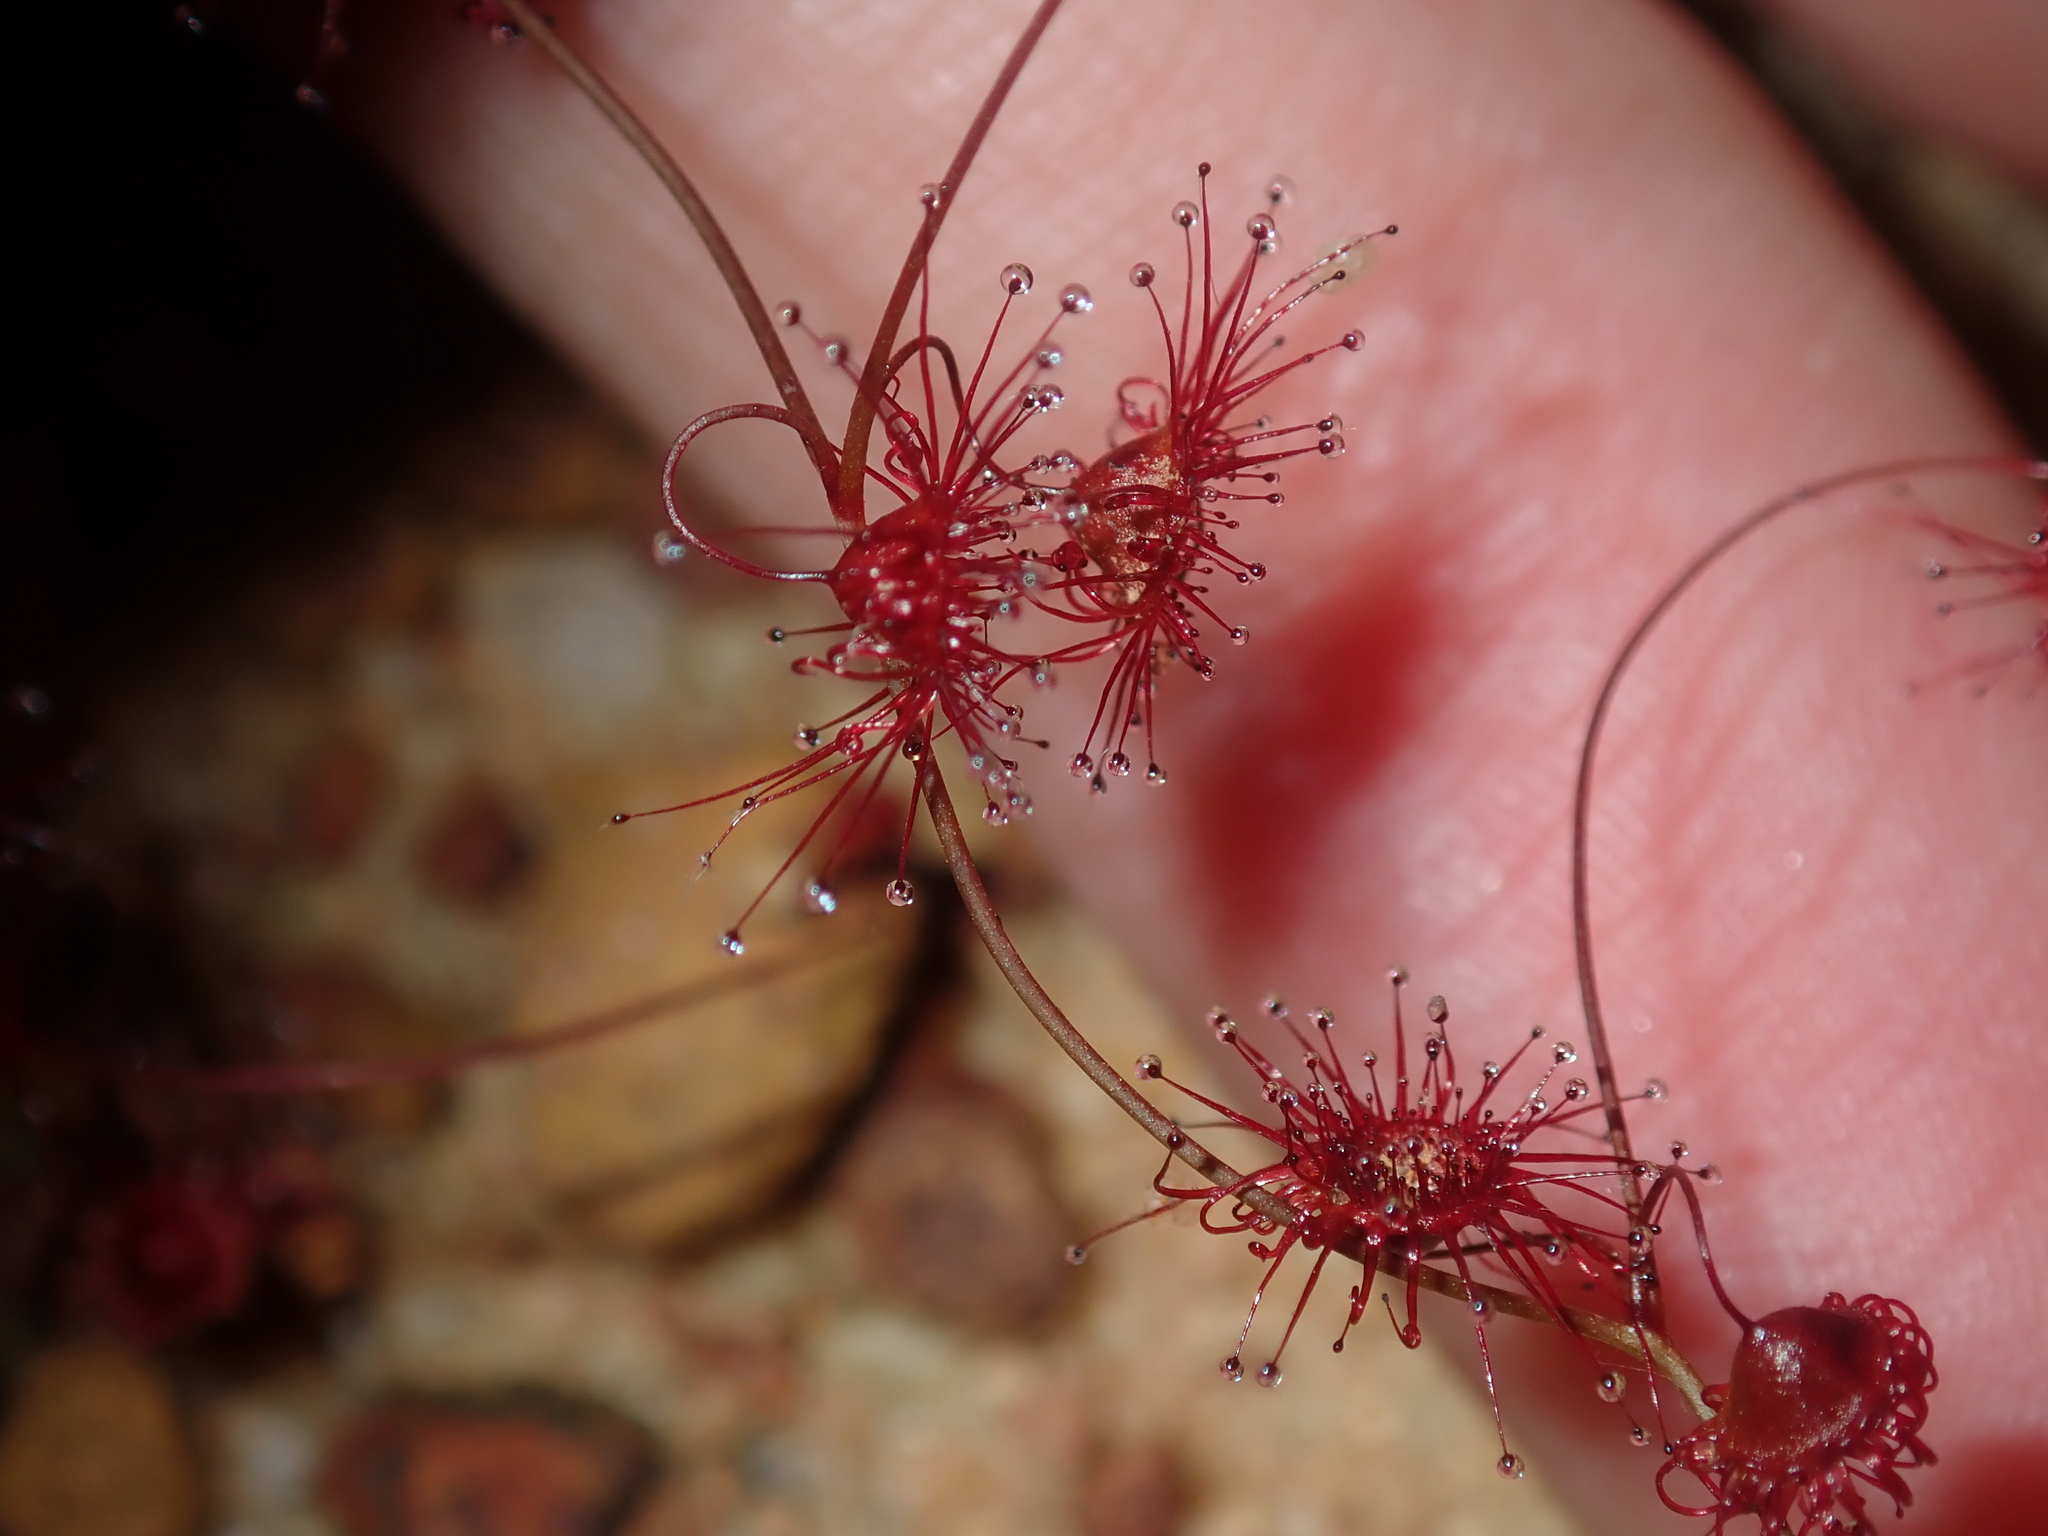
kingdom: Plantae
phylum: Tracheophyta
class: Magnoliopsida
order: Caryophyllales
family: Droseraceae
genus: Drosera
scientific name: Drosera menziesii
